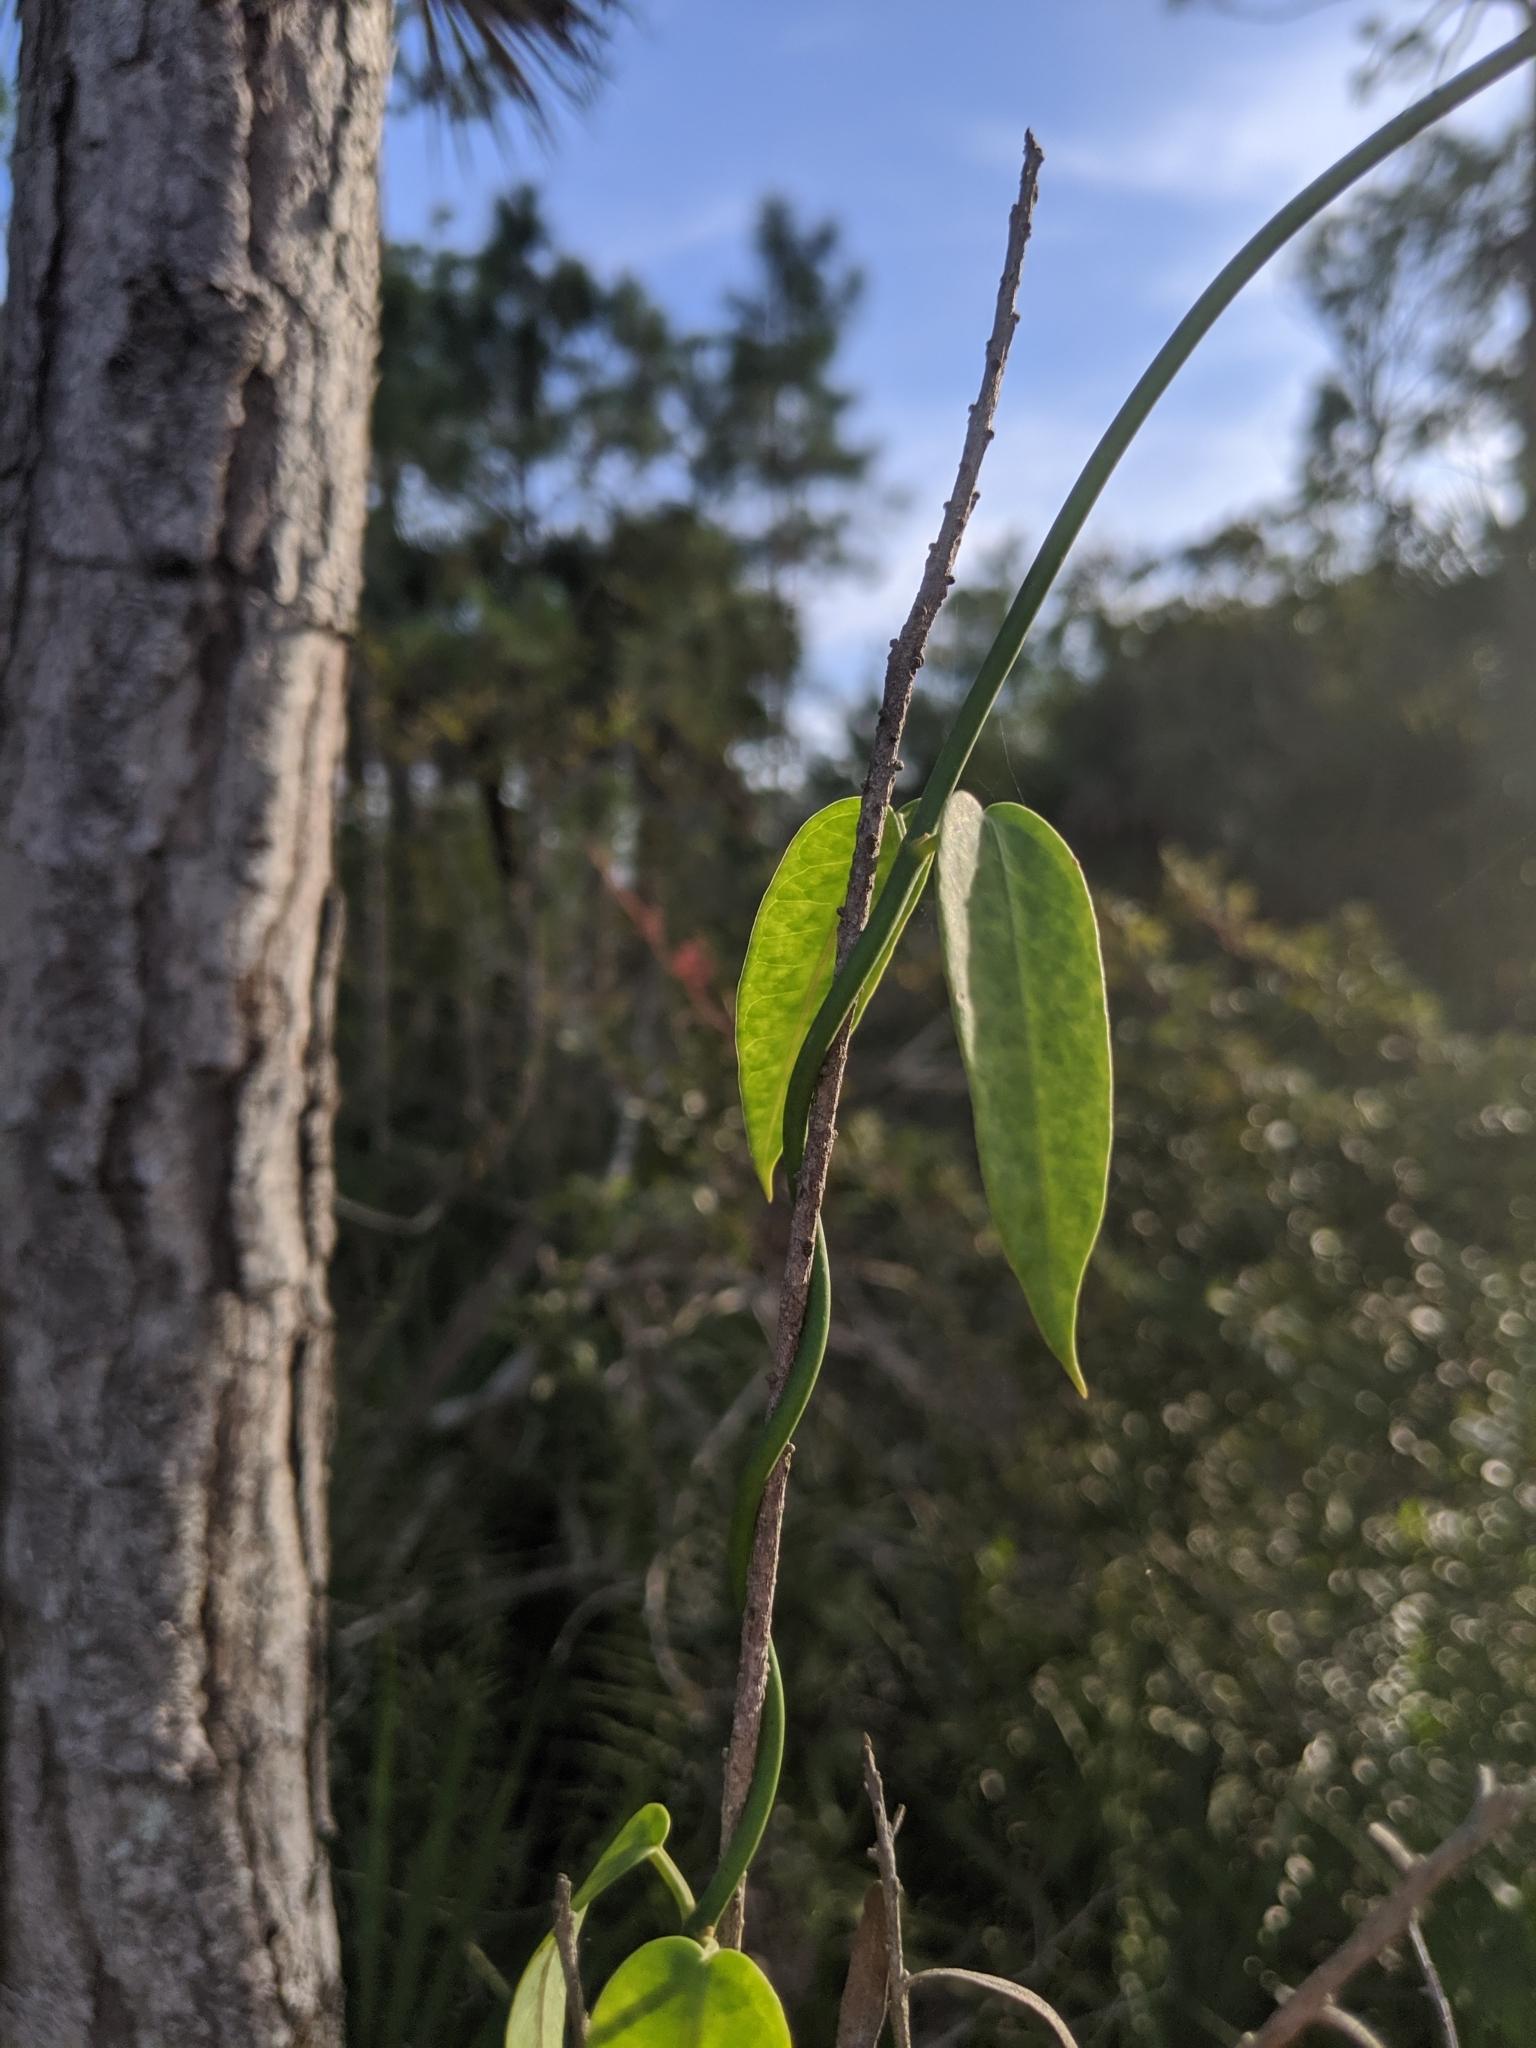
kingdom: Plantae
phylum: Tracheophyta
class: Magnoliopsida
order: Gentianales
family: Apocynaceae
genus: Funastrum
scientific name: Funastrum clausum
